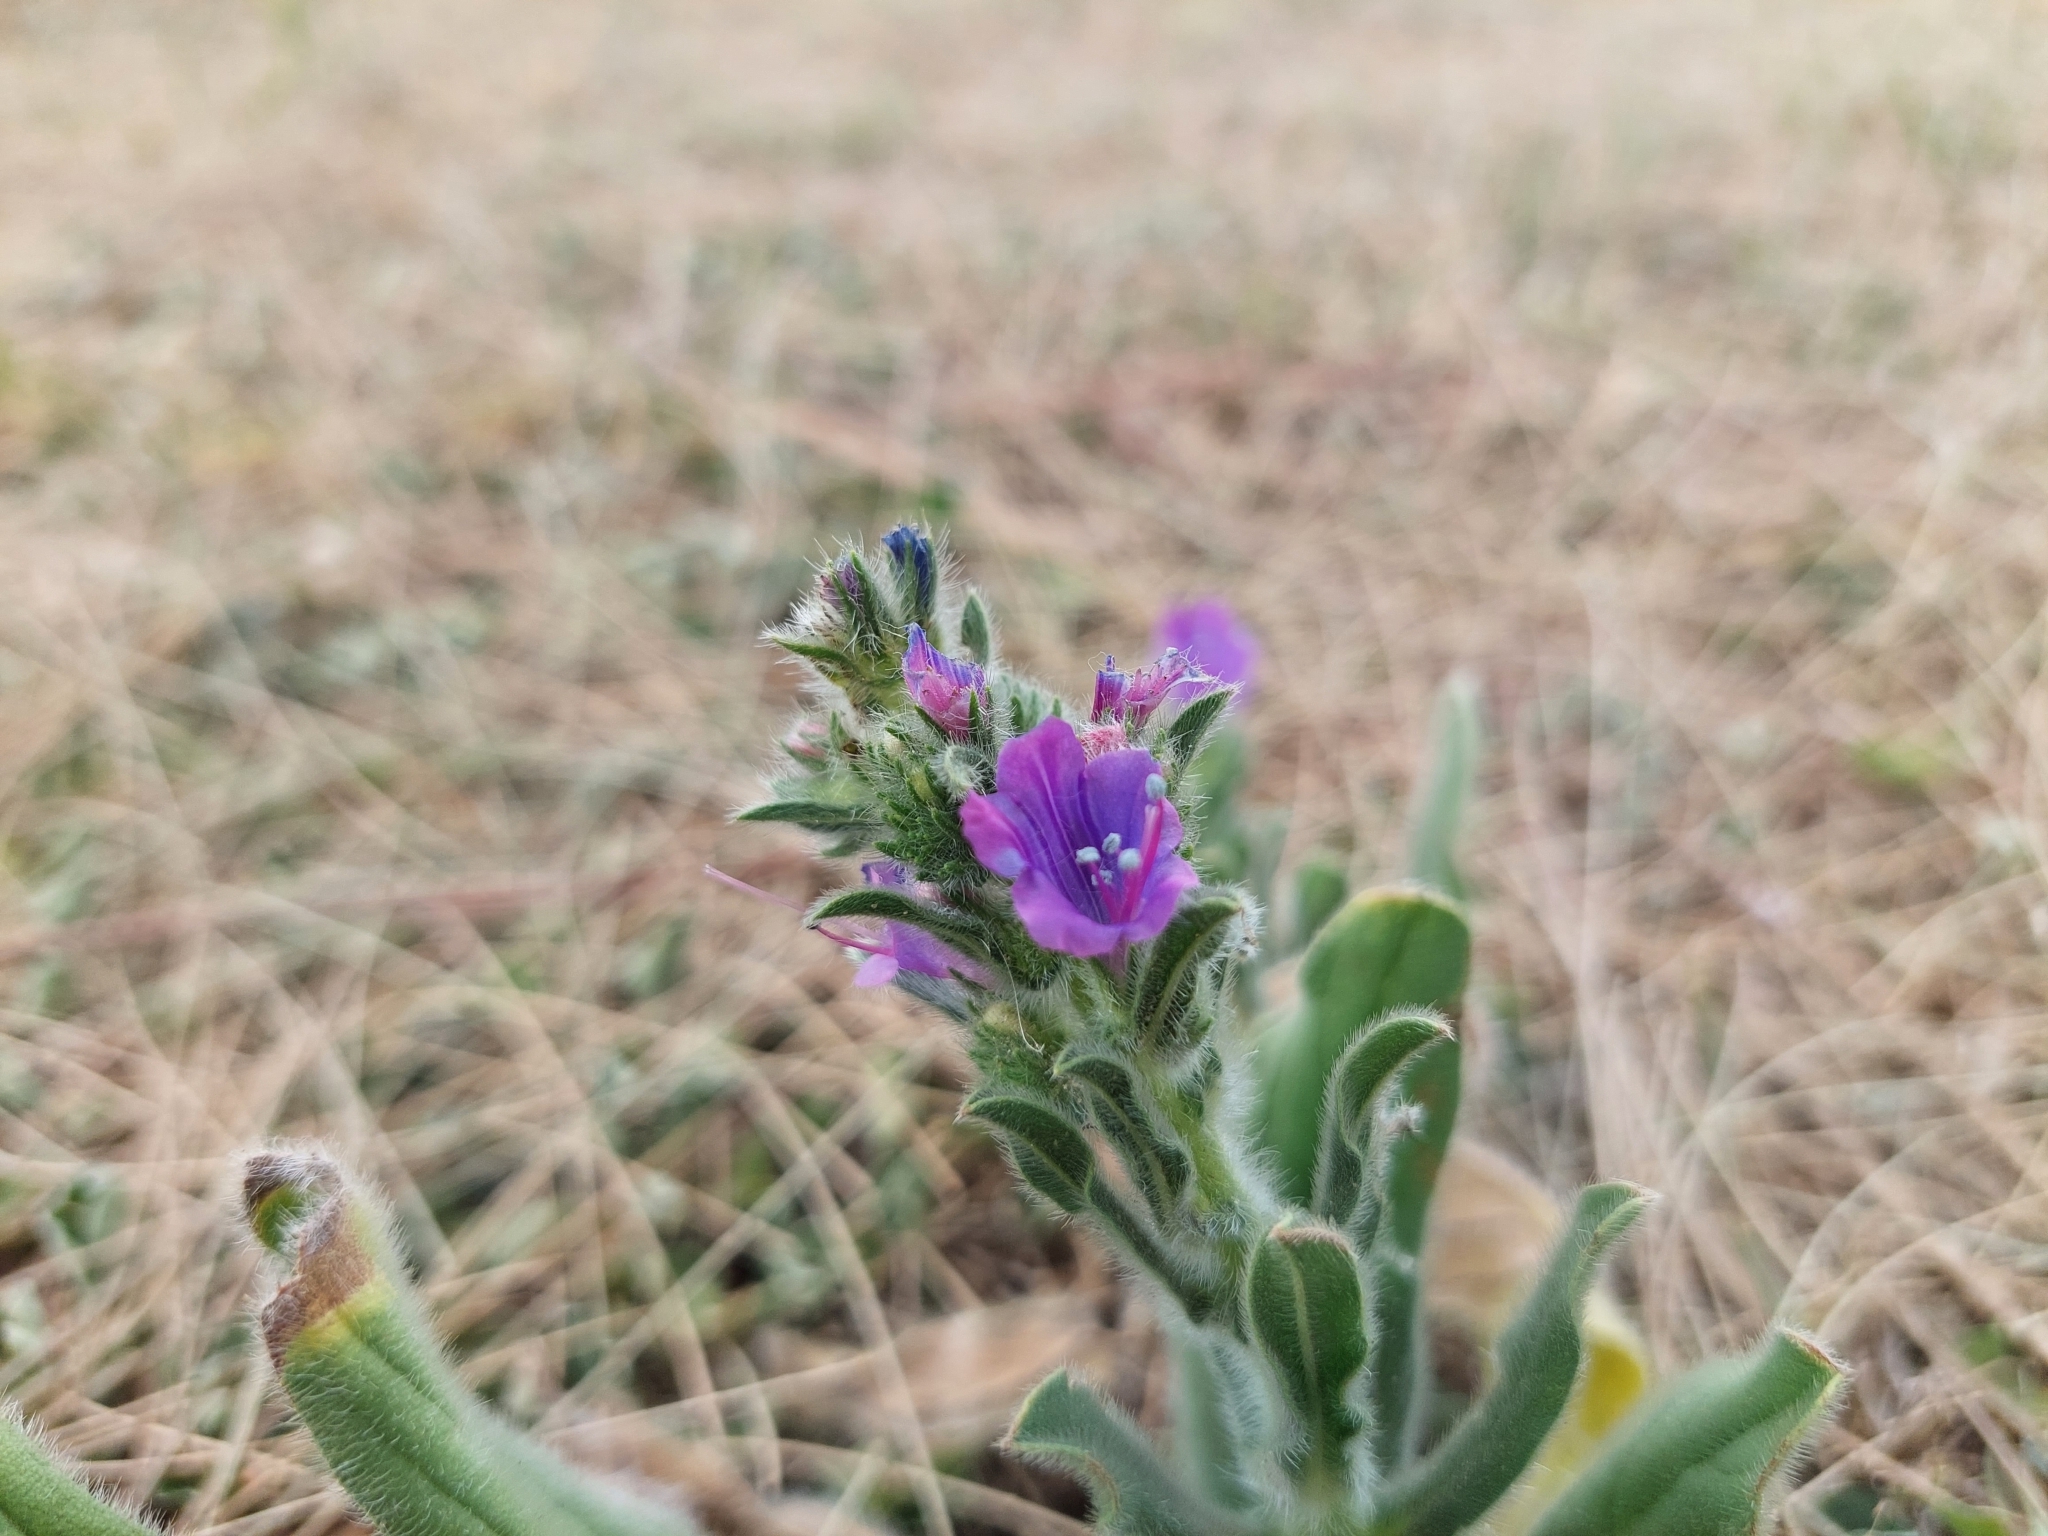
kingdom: Plantae
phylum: Tracheophyta
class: Magnoliopsida
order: Boraginales
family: Boraginaceae
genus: Echium
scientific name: Echium plantagineum
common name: Purple viper's-bugloss
